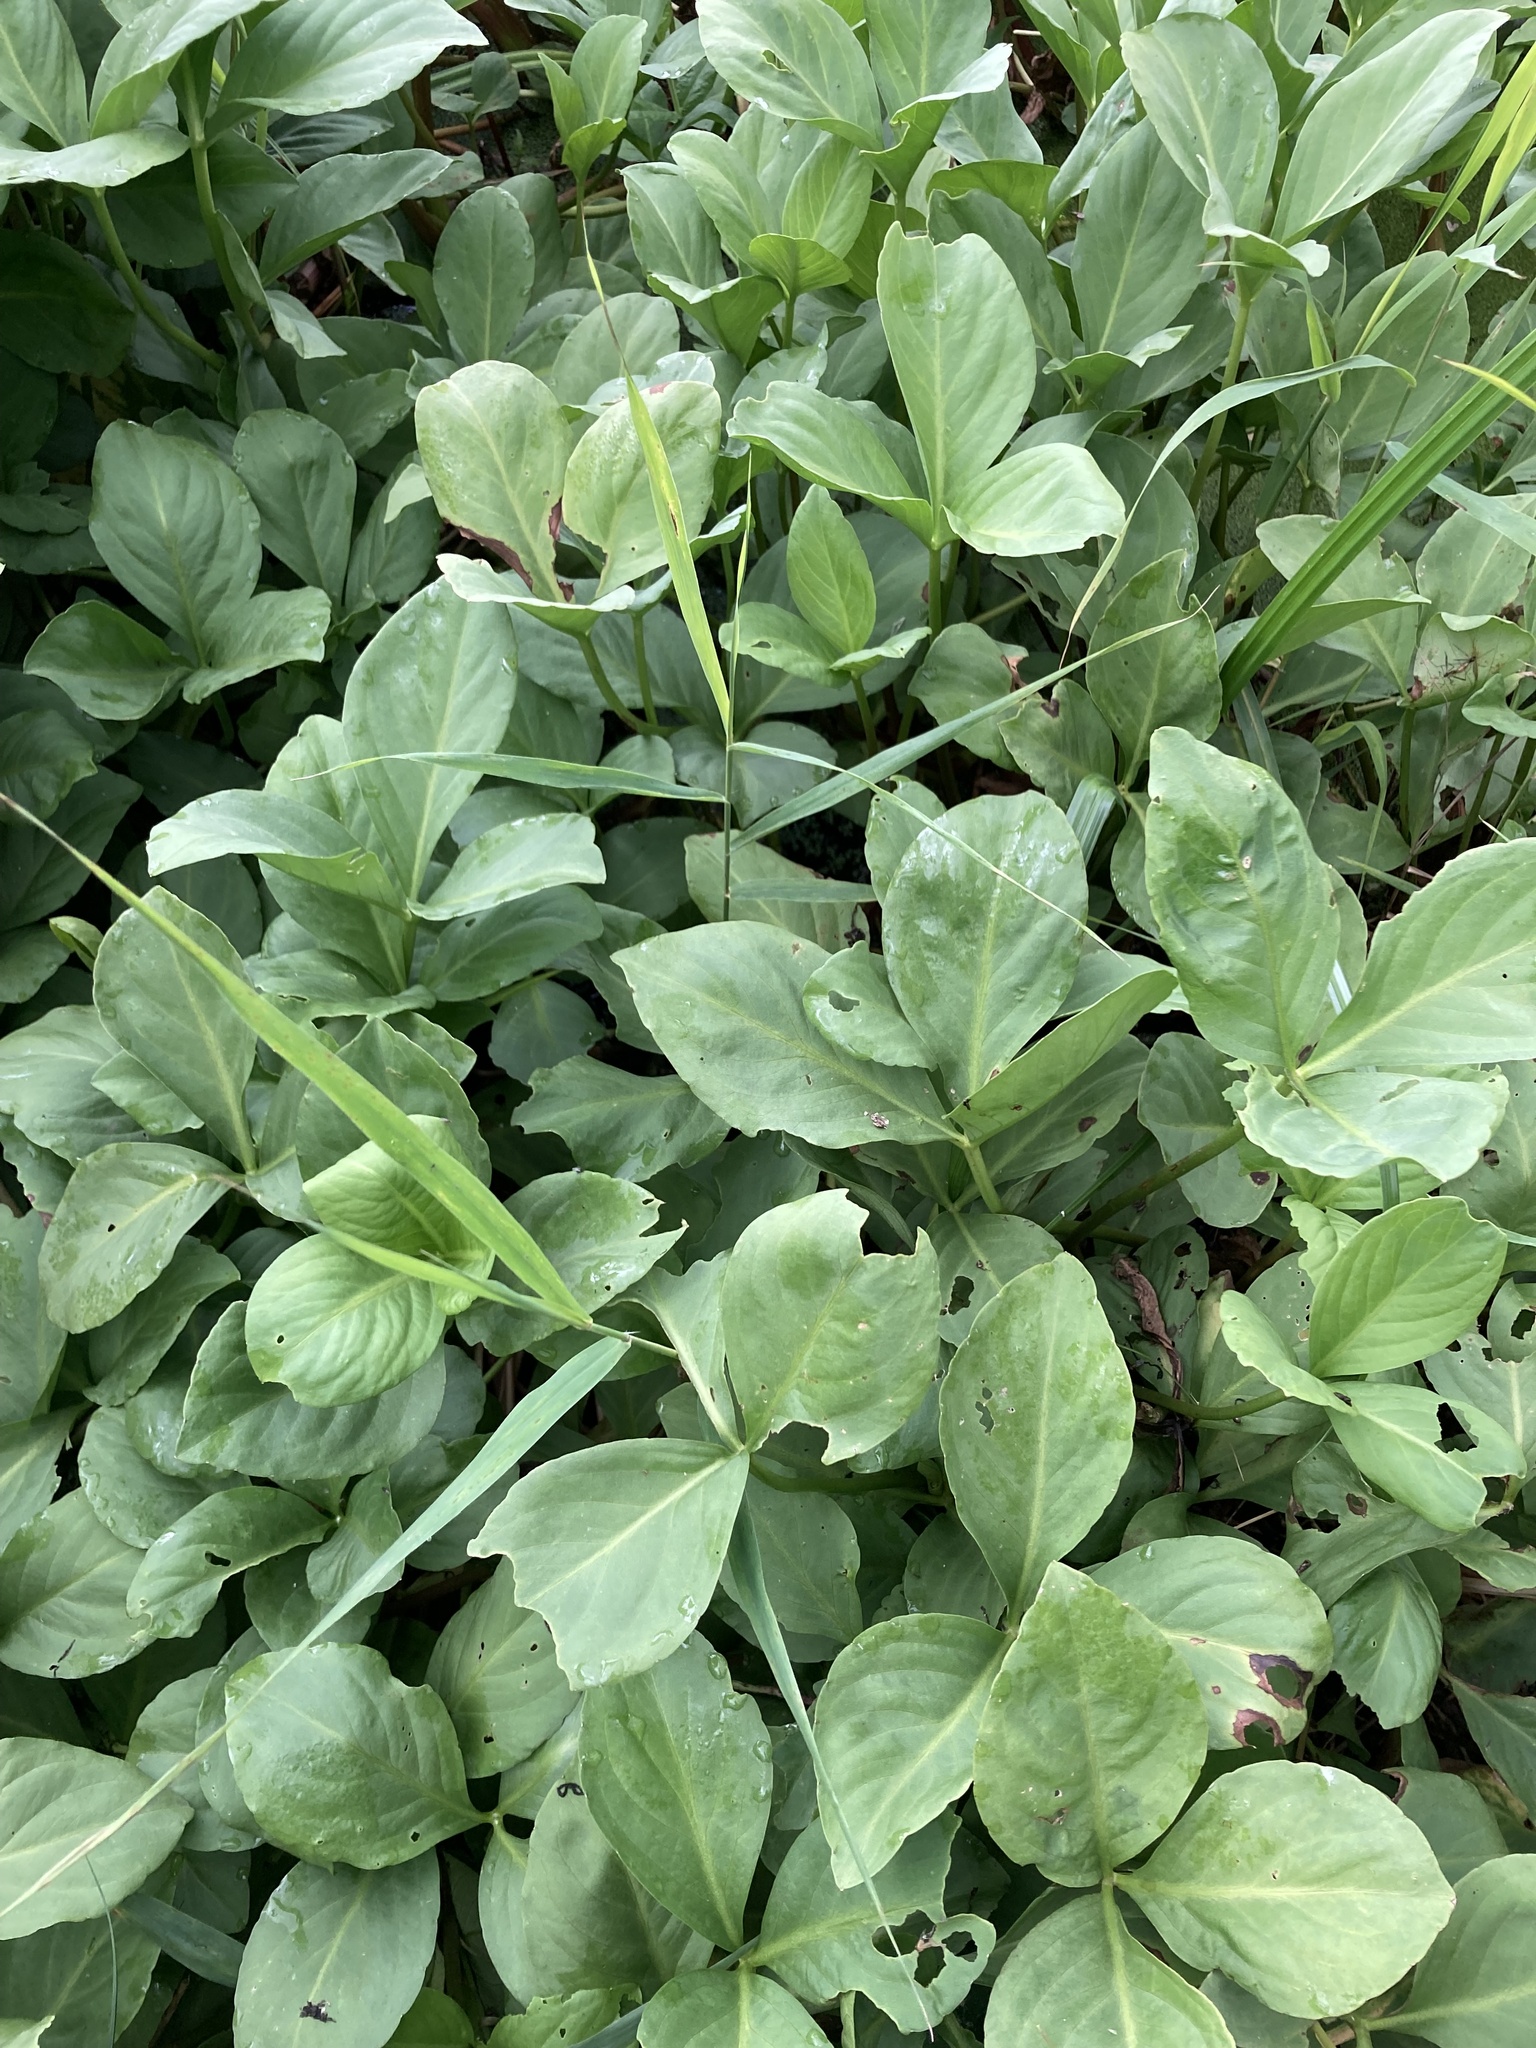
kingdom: Plantae
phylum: Tracheophyta
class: Magnoliopsida
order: Asterales
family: Menyanthaceae
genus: Menyanthes
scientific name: Menyanthes trifoliata
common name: Bogbean
